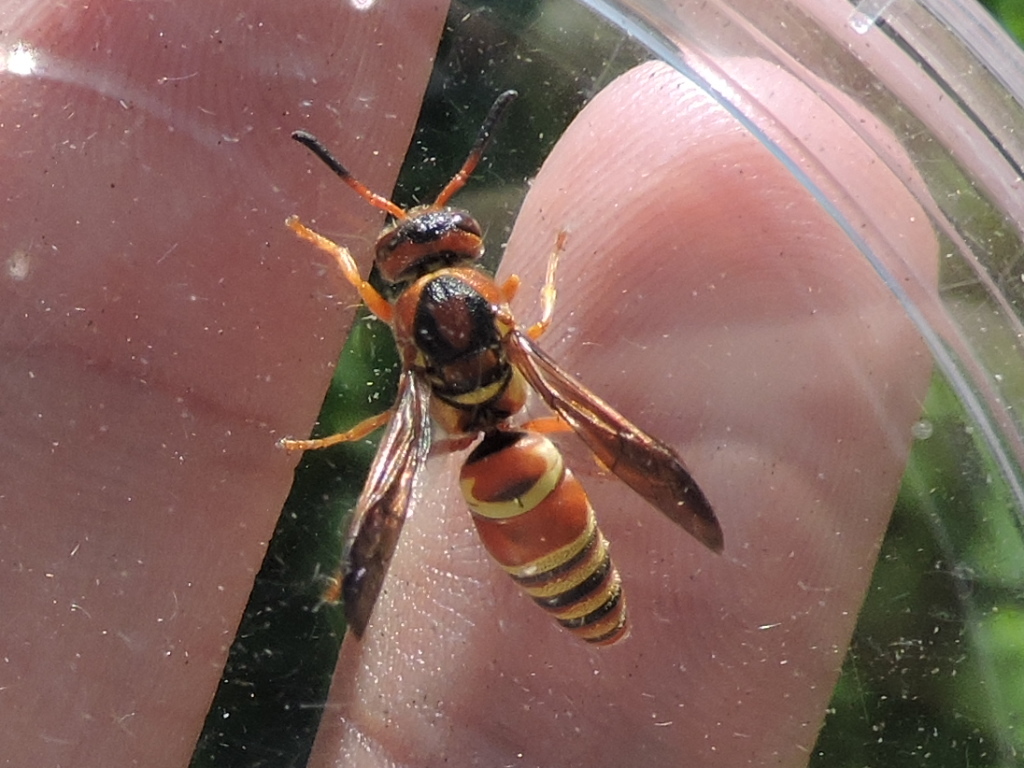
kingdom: Animalia
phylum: Arthropoda
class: Insecta
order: Hymenoptera
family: Eumenidae
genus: Euodynerus
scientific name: Euodynerus pratensis
